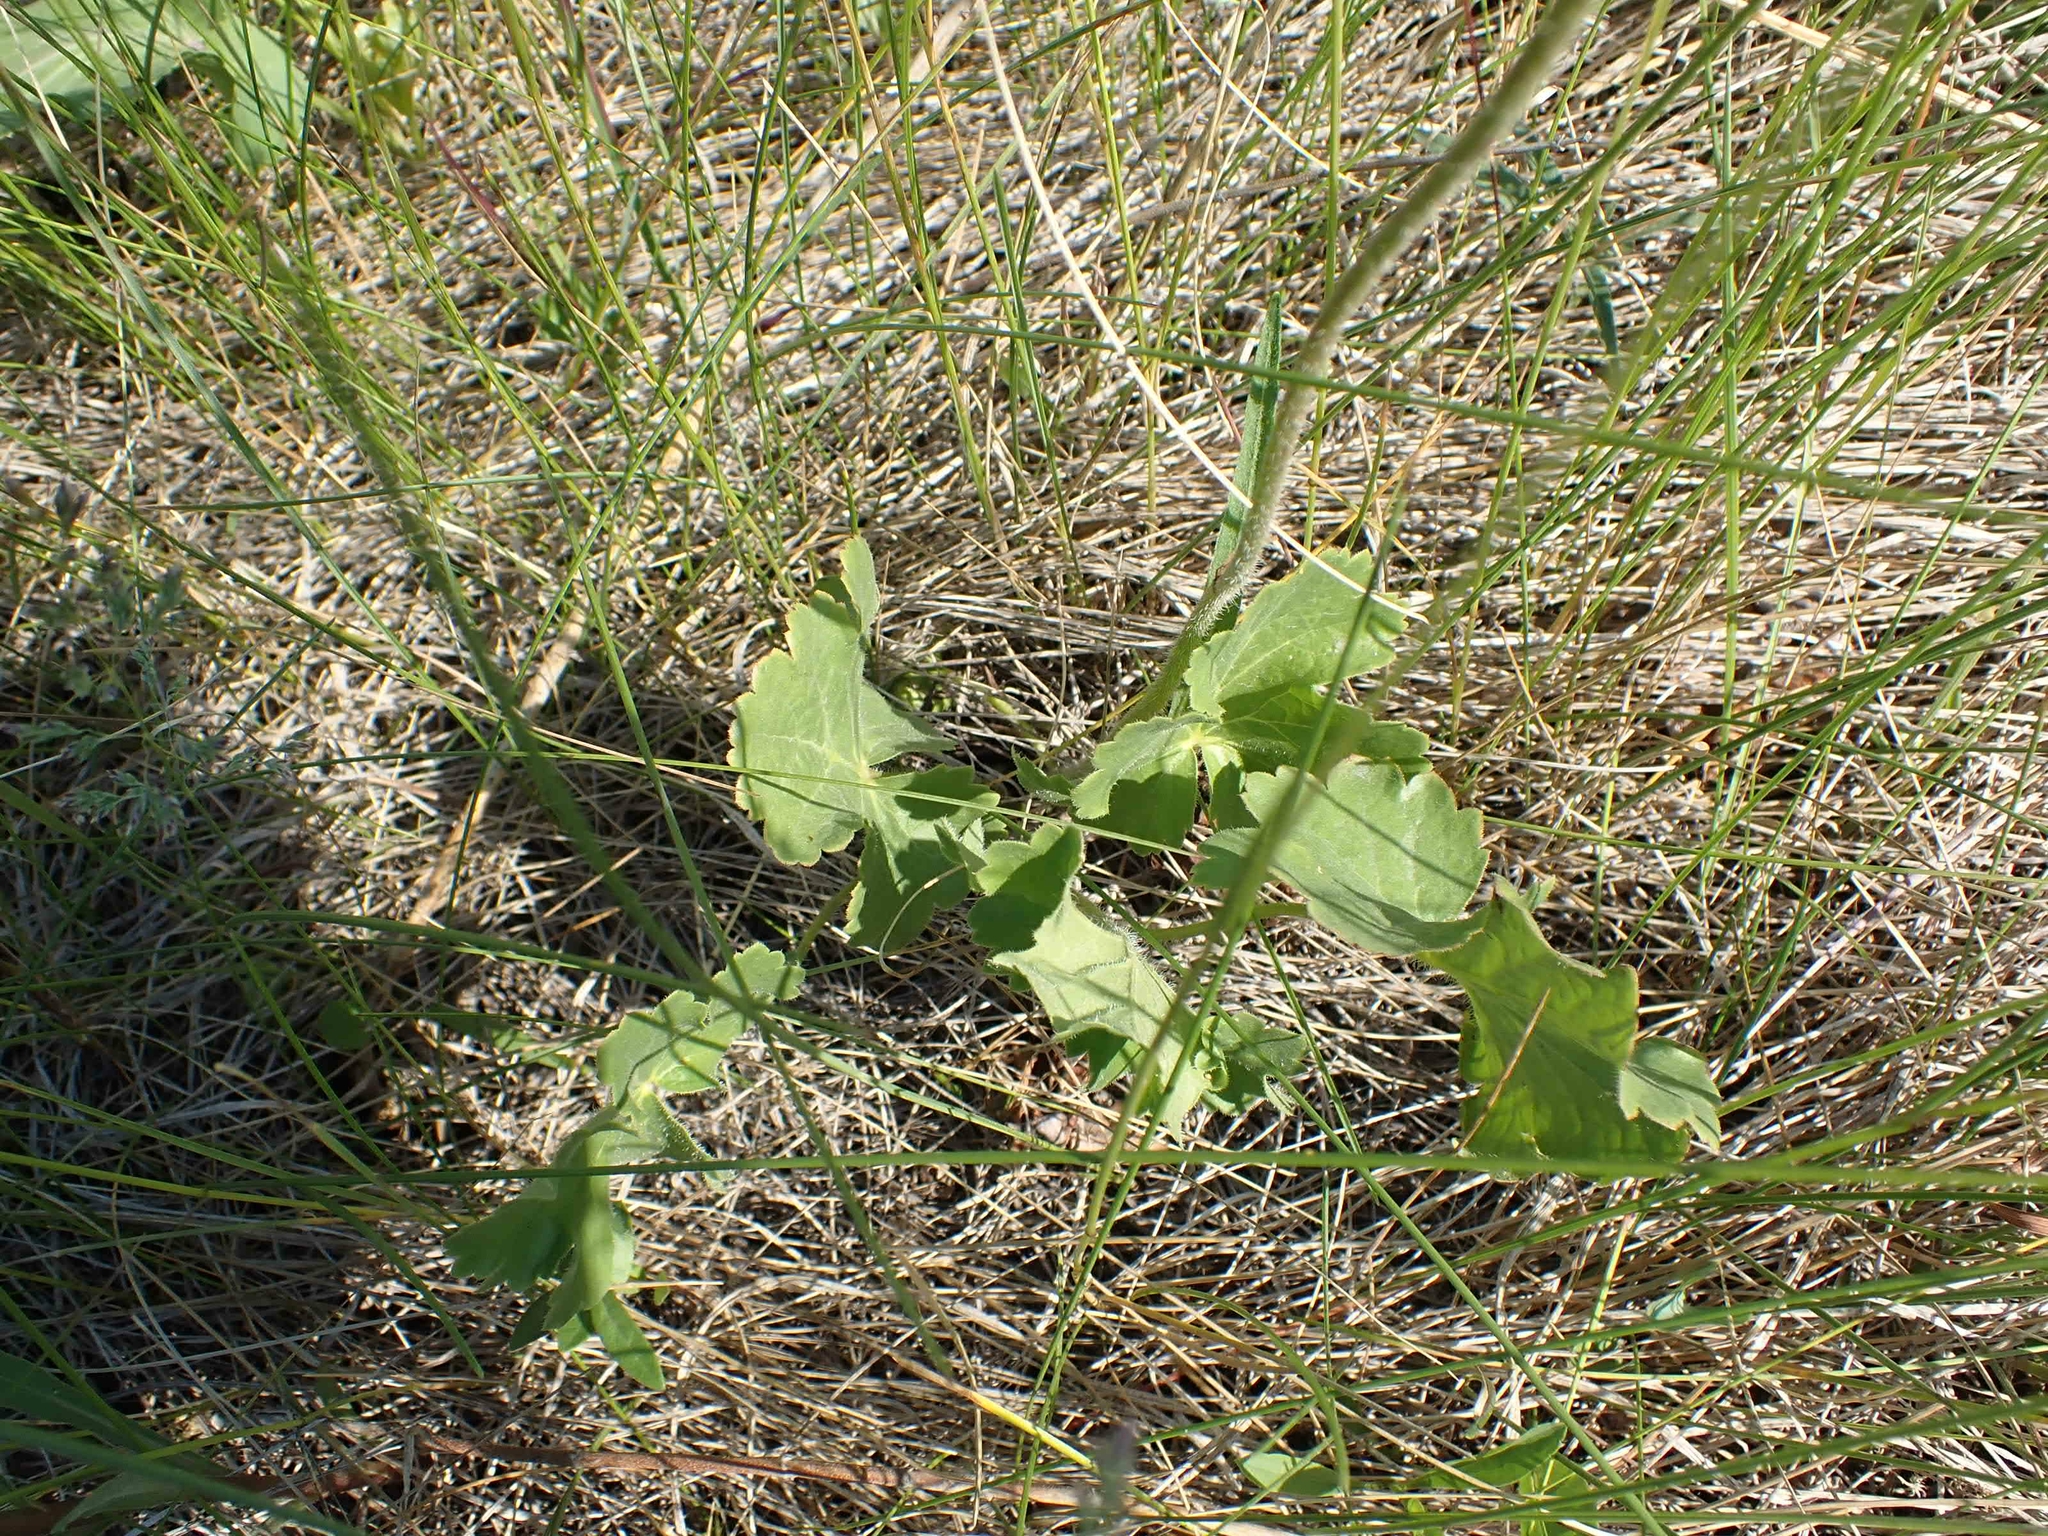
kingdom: Plantae
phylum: Tracheophyta
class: Magnoliopsida
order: Saxifragales
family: Saxifragaceae
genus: Heuchera
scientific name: Heuchera richardsonii
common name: Richardson's alumroot
